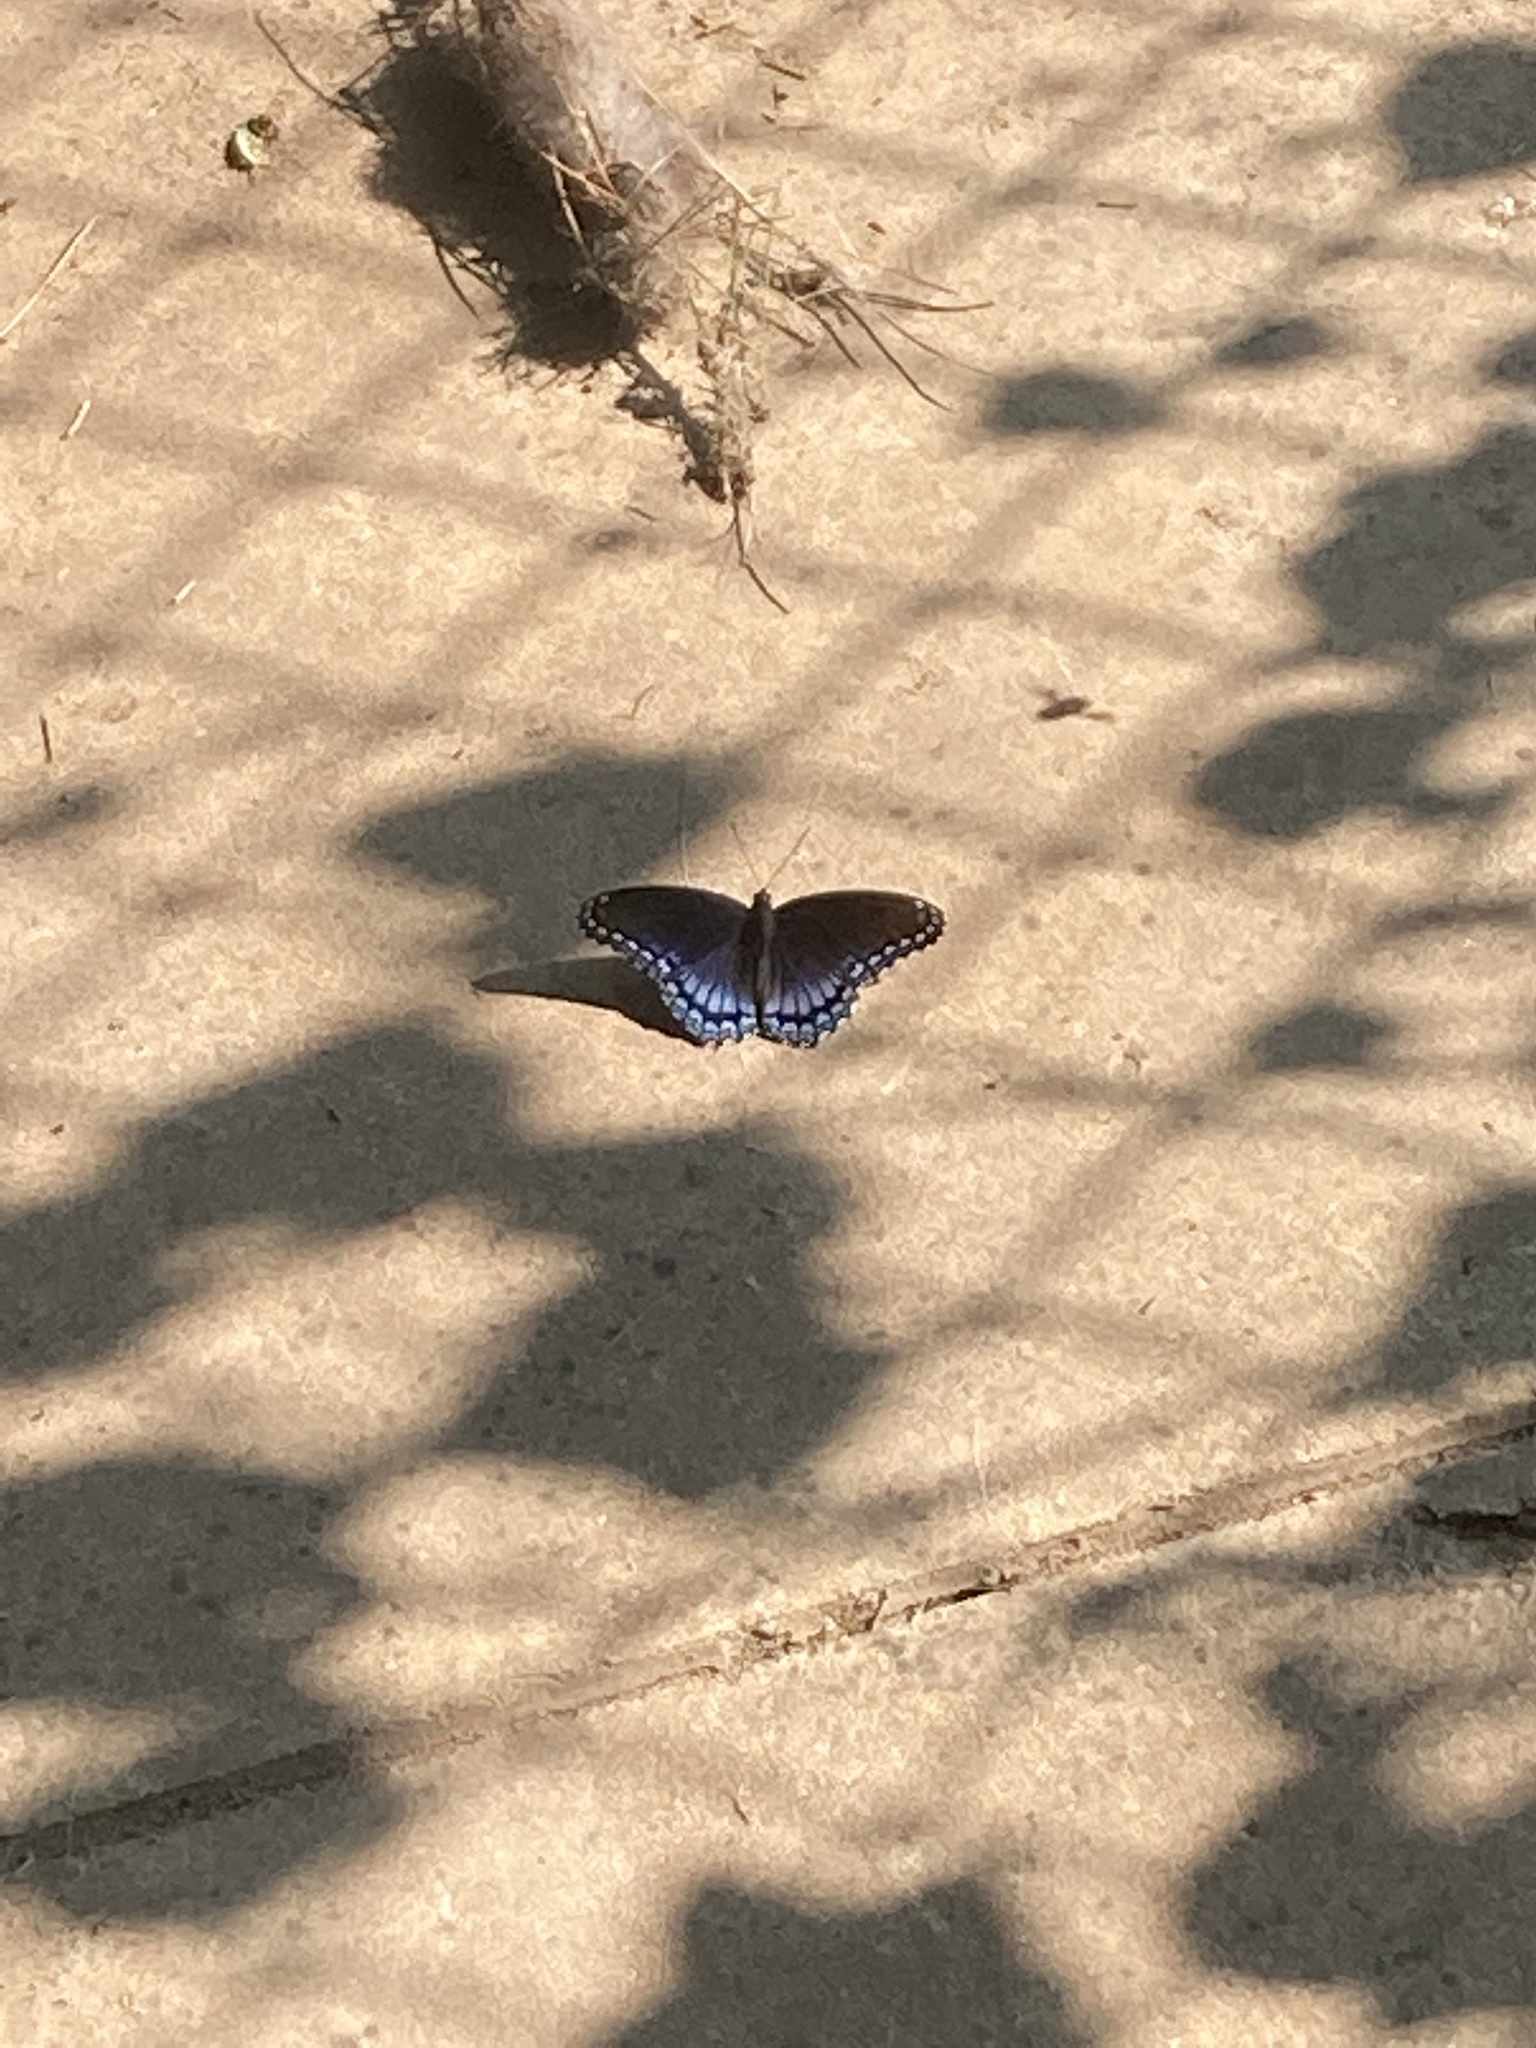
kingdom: Animalia
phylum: Arthropoda
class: Insecta
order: Lepidoptera
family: Nymphalidae
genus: Limenitis
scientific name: Limenitis astyanax
